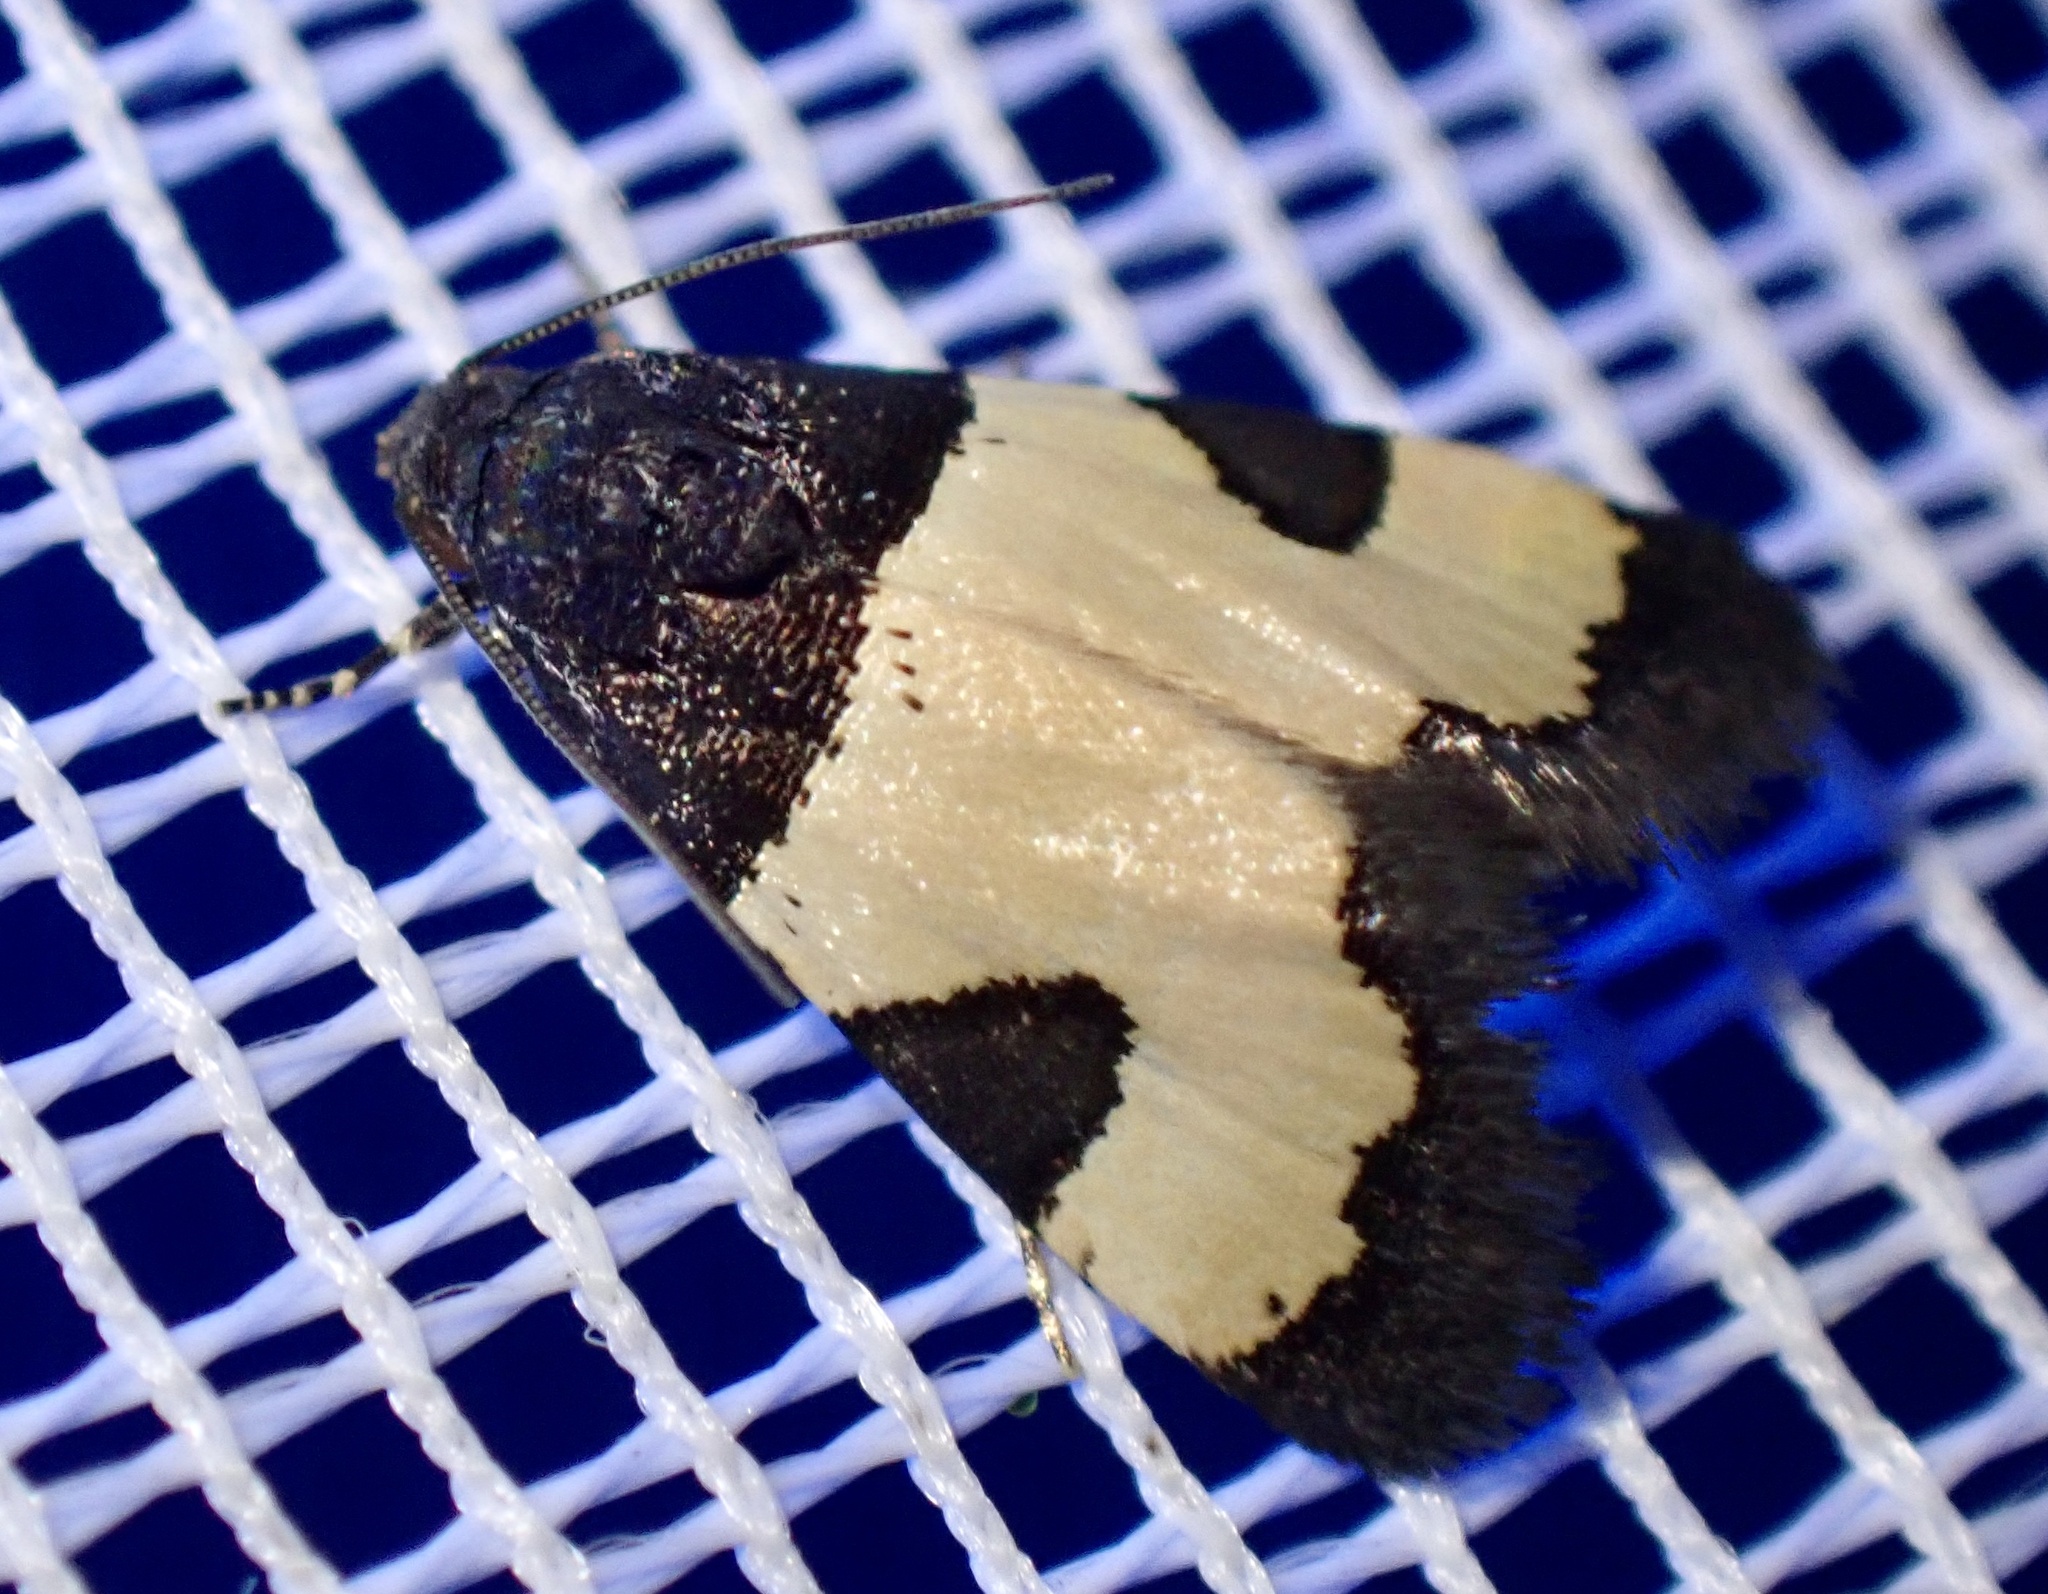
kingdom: Animalia
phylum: Arthropoda
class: Insecta
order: Lepidoptera
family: Noctuidae
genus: Thalerastria
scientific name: Thalerastria lehmanni
